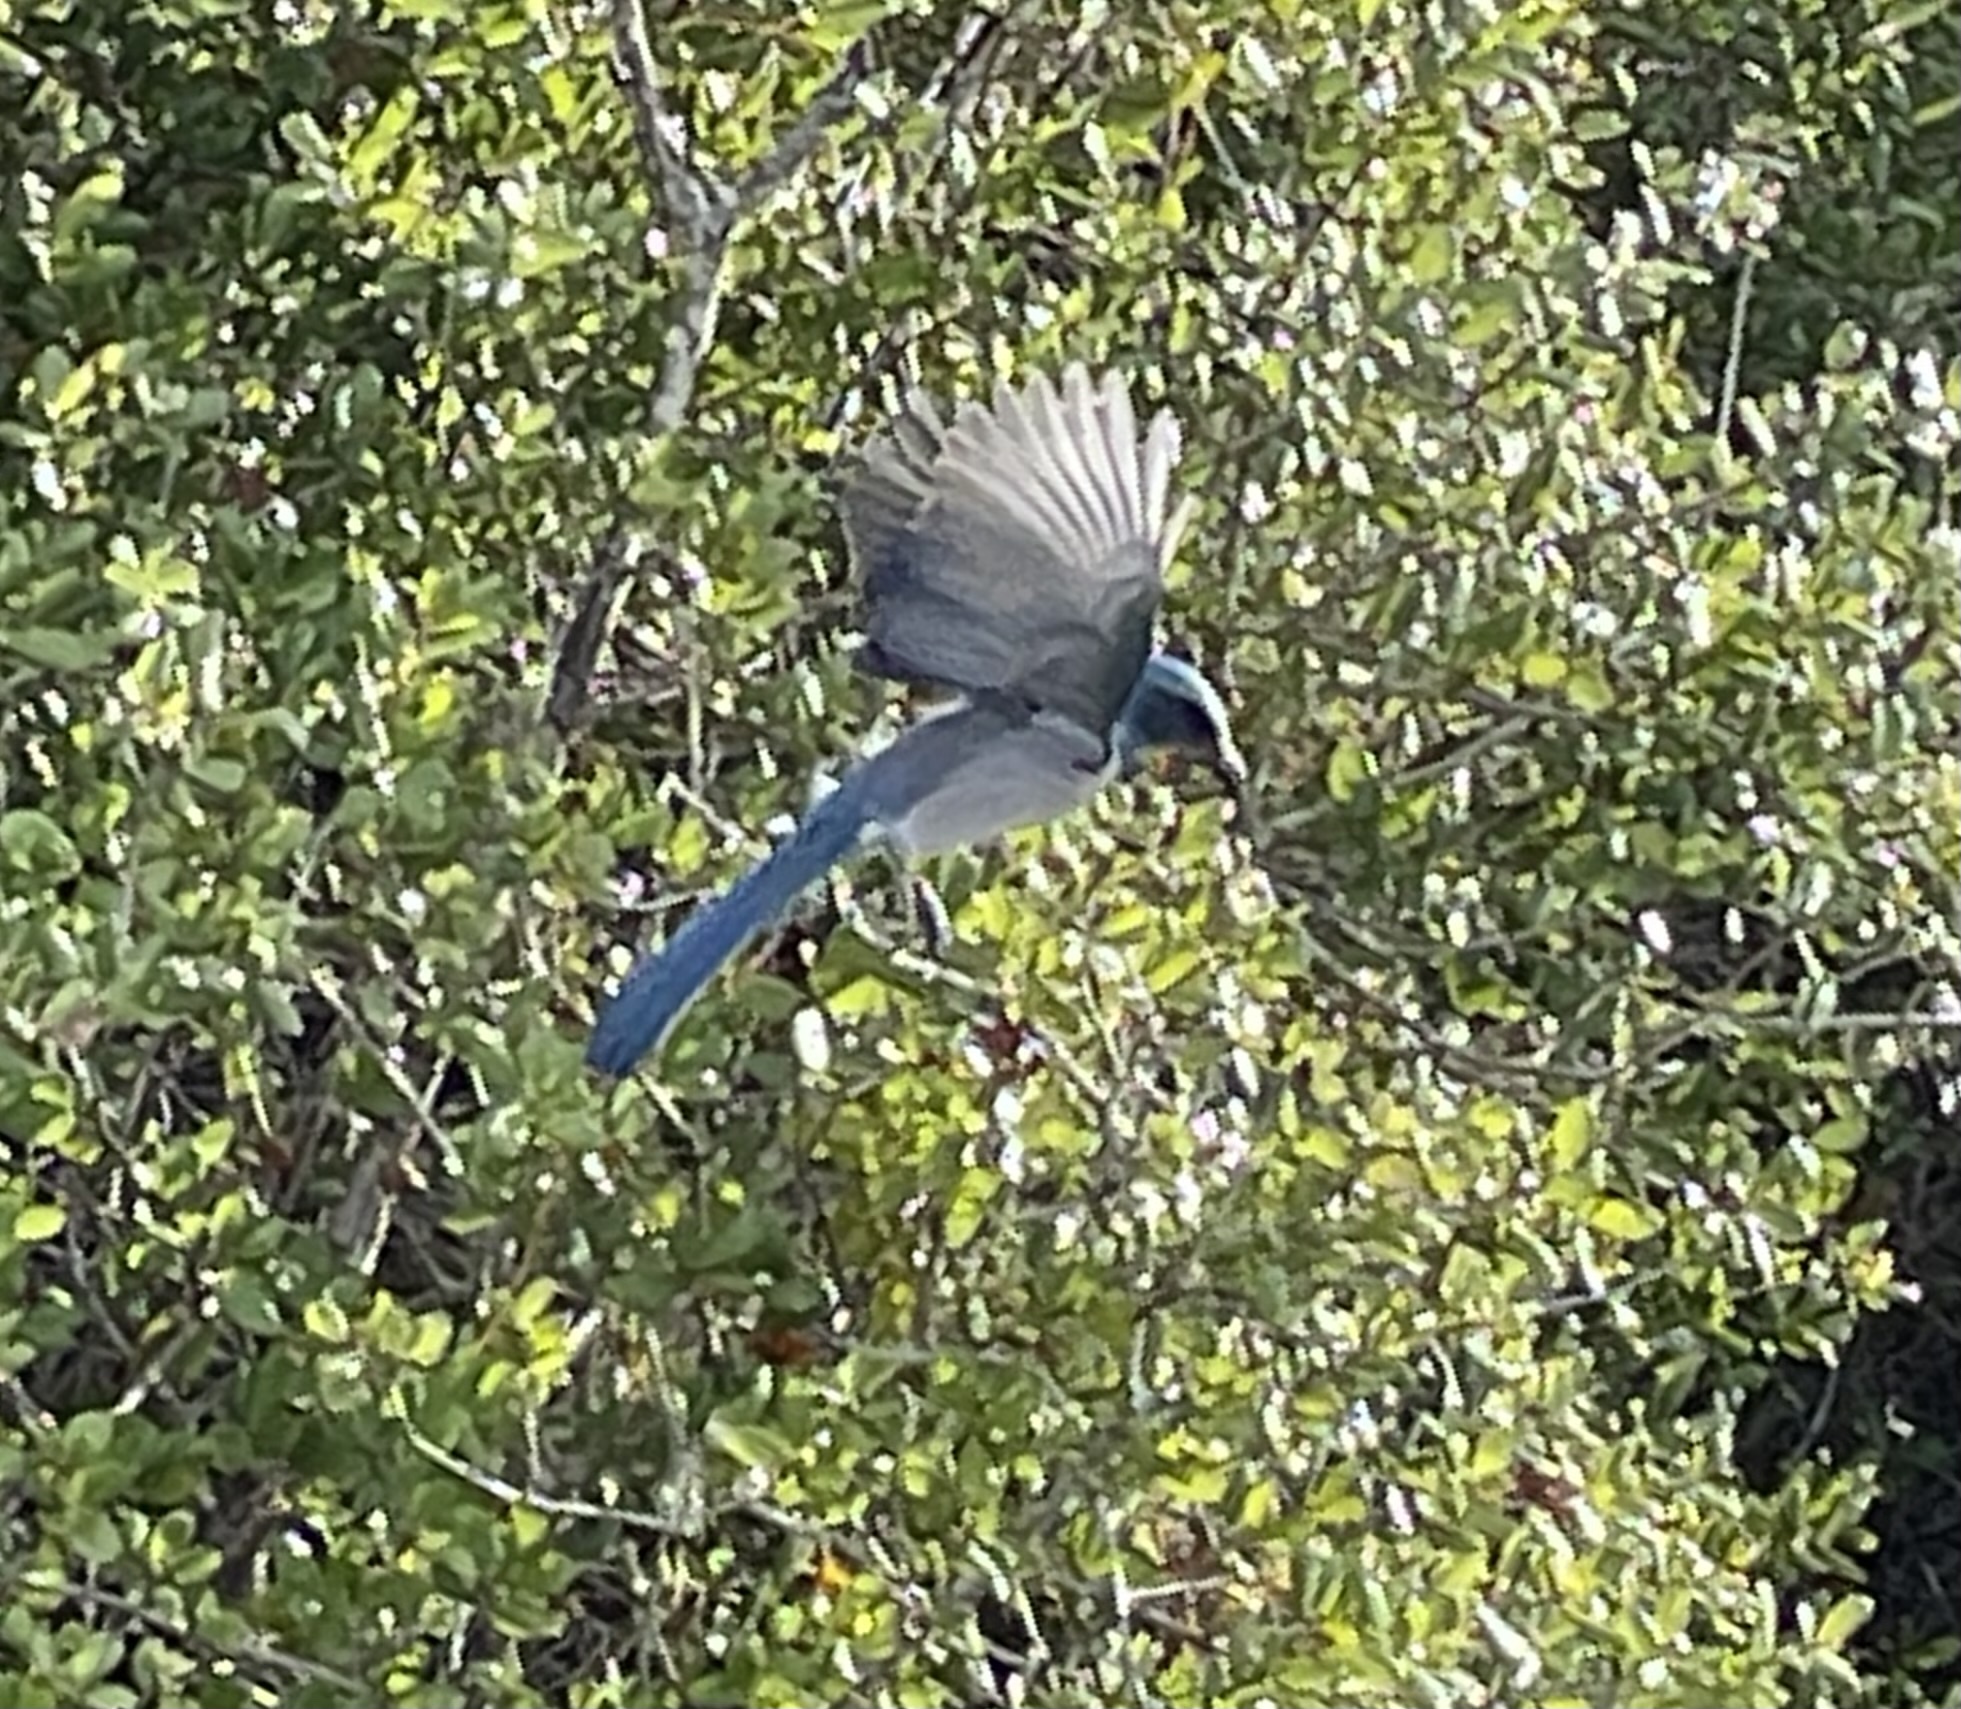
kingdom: Animalia
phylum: Chordata
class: Aves
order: Passeriformes
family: Corvidae
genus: Aphelocoma
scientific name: Aphelocoma coerulescens
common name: Florida scrub jay
